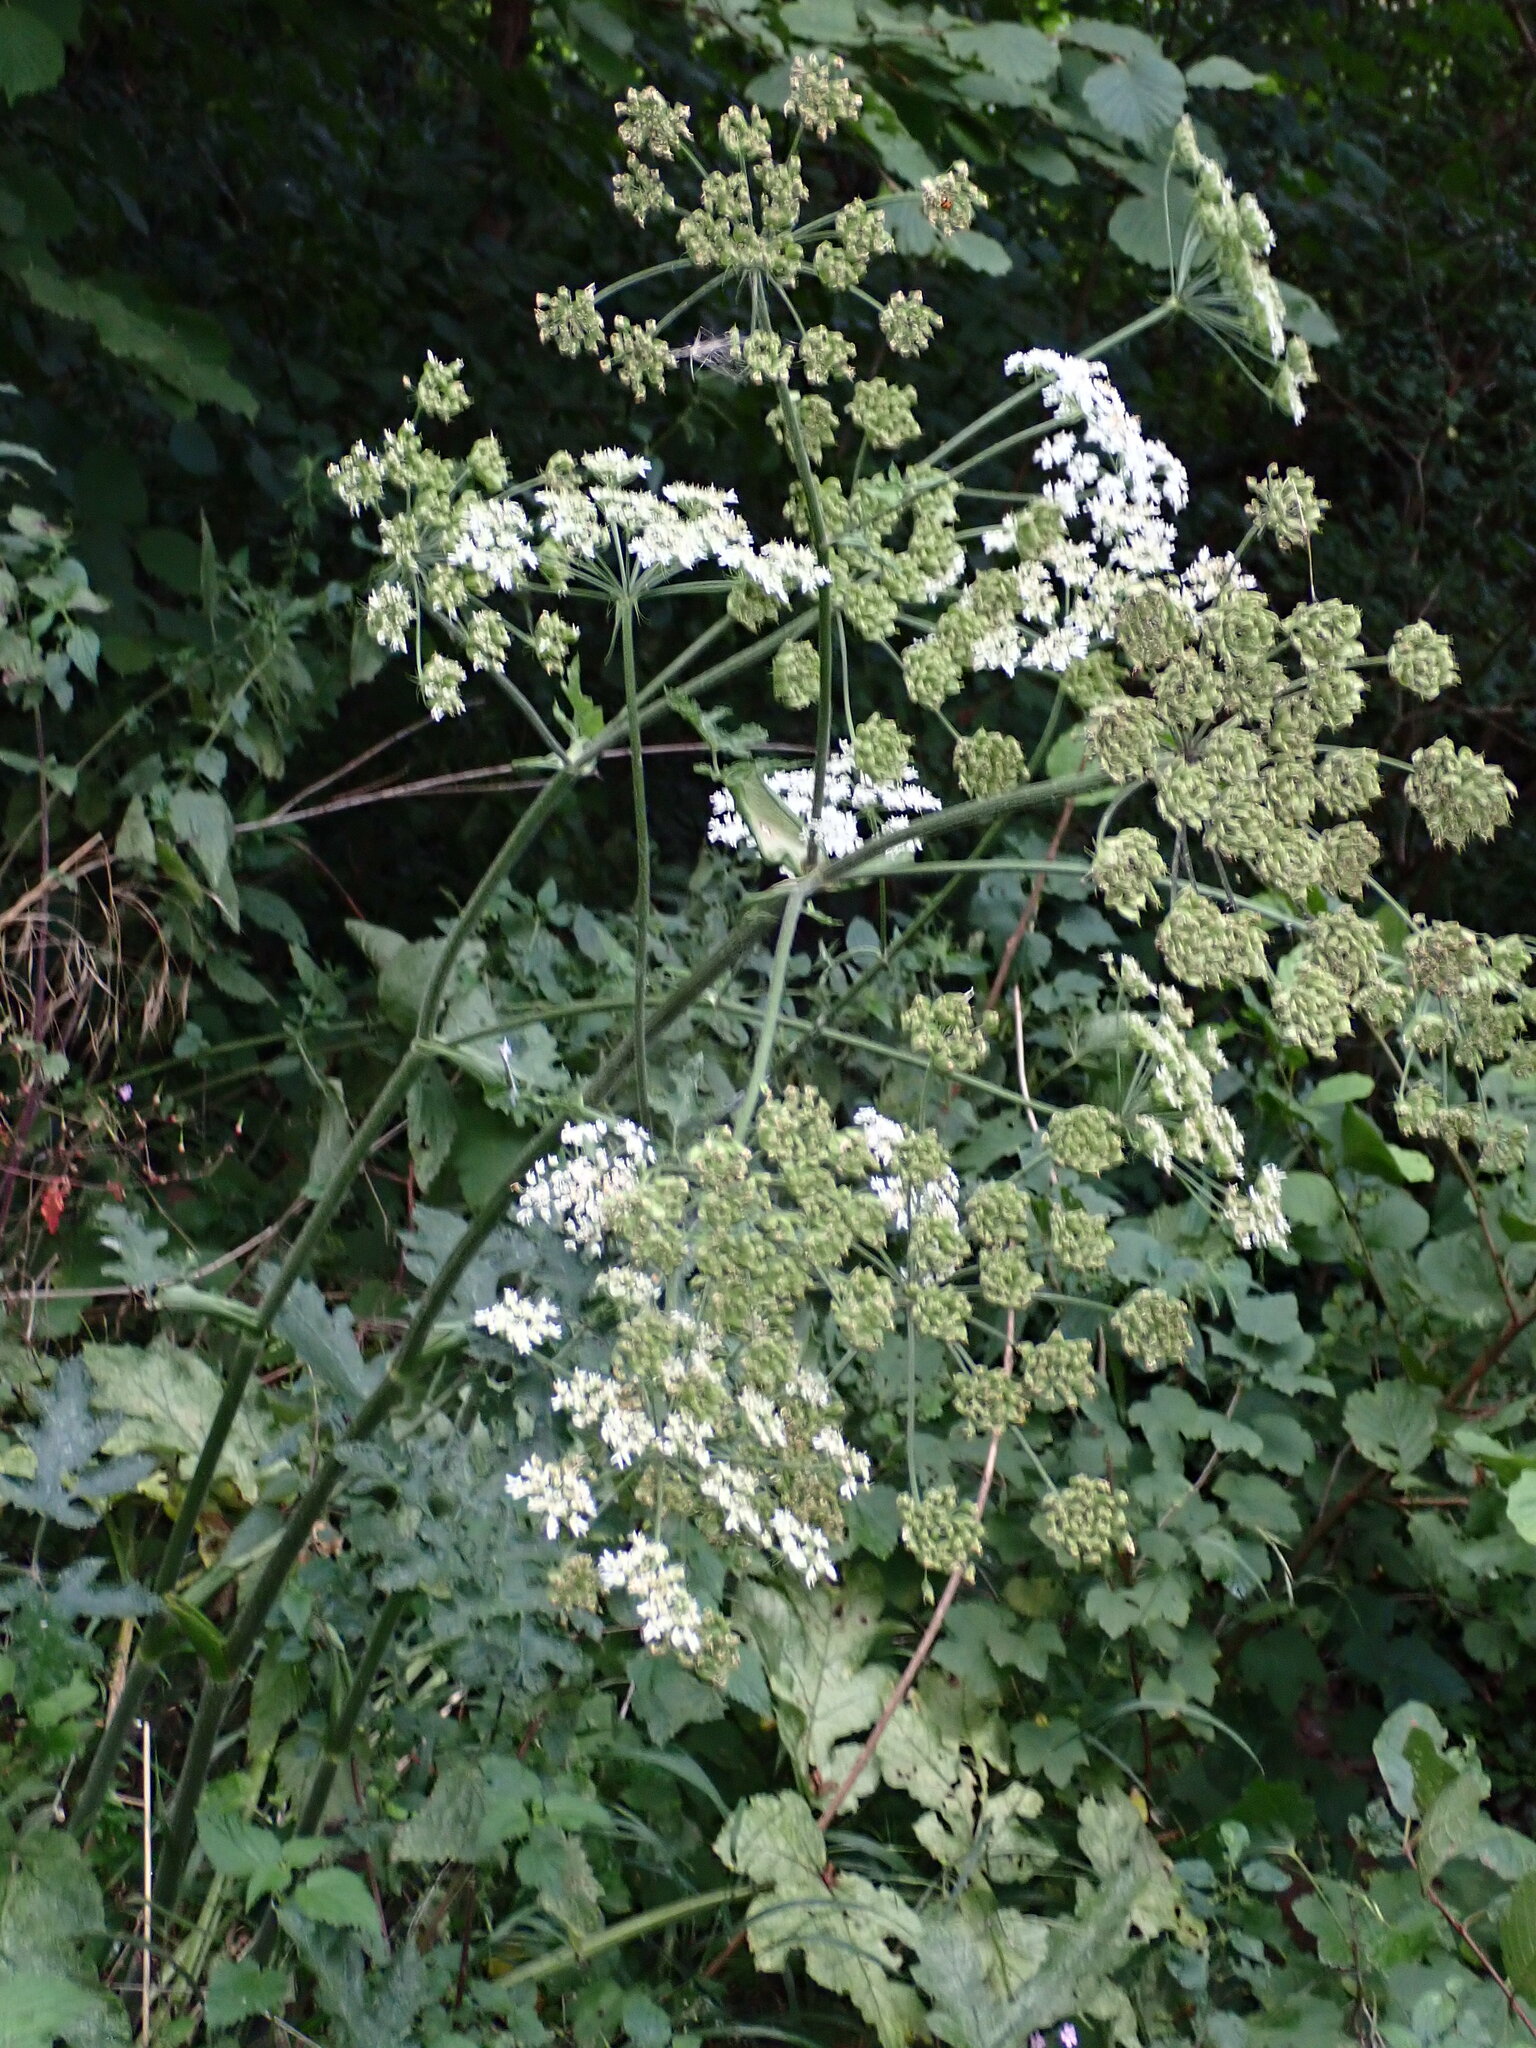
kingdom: Plantae
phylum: Tracheophyta
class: Magnoliopsida
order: Apiales
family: Apiaceae
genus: Heracleum
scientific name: Heracleum sphondylium
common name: Hogweed
